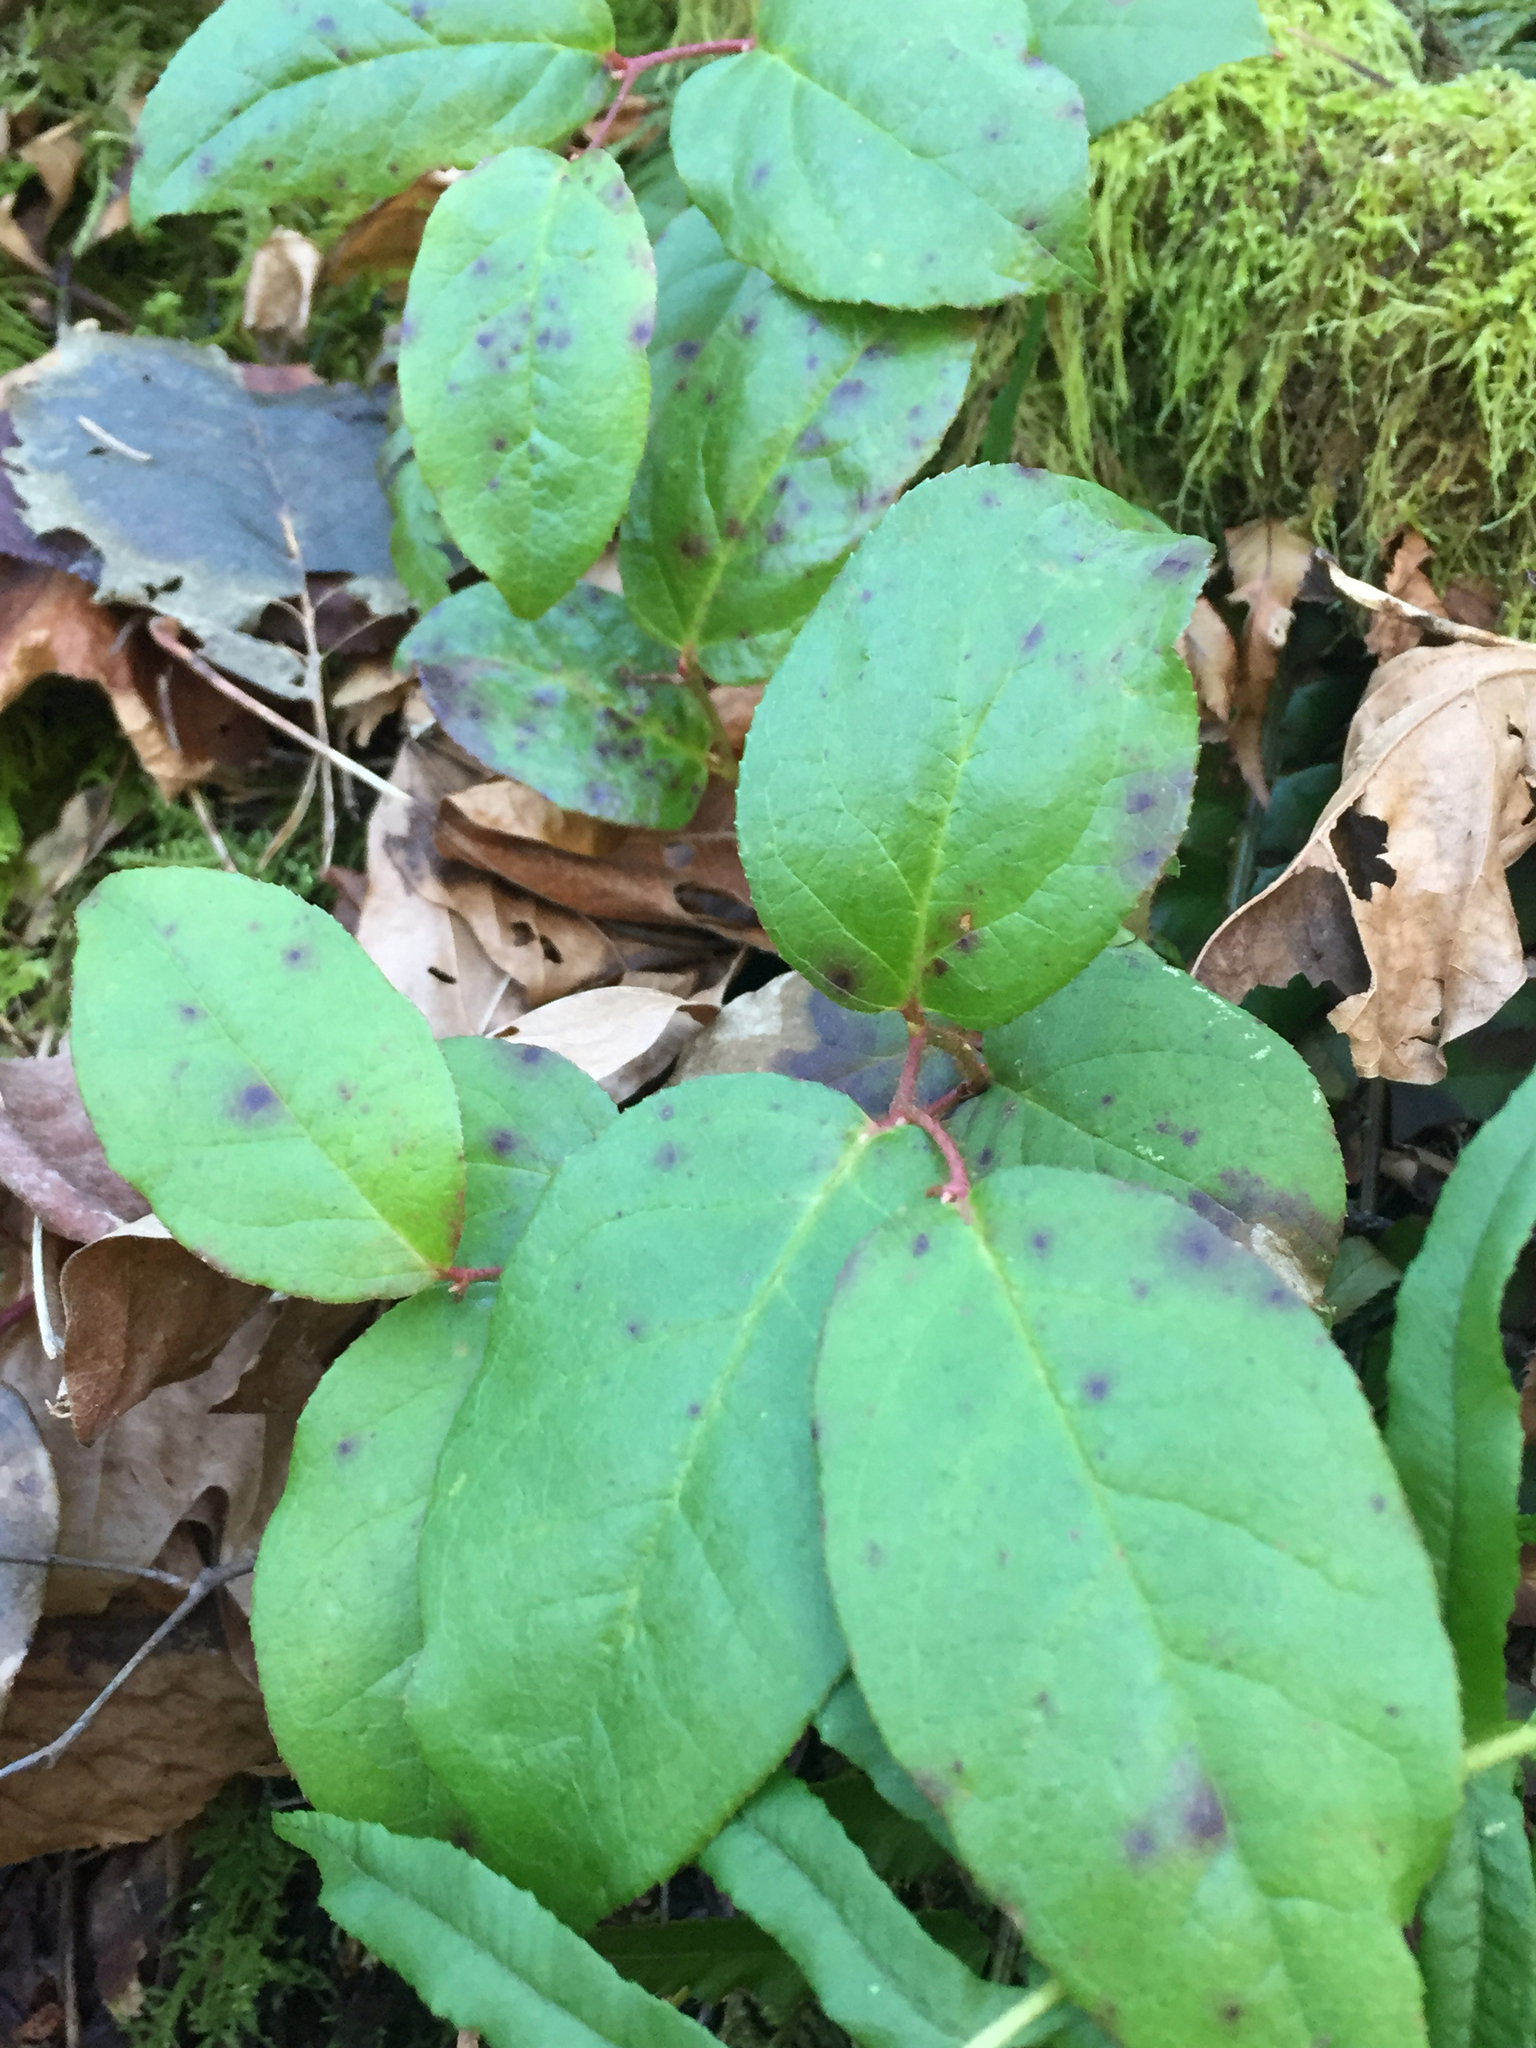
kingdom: Plantae
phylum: Tracheophyta
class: Magnoliopsida
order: Ericales
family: Ericaceae
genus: Gaultheria
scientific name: Gaultheria shallon
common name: Shallon
